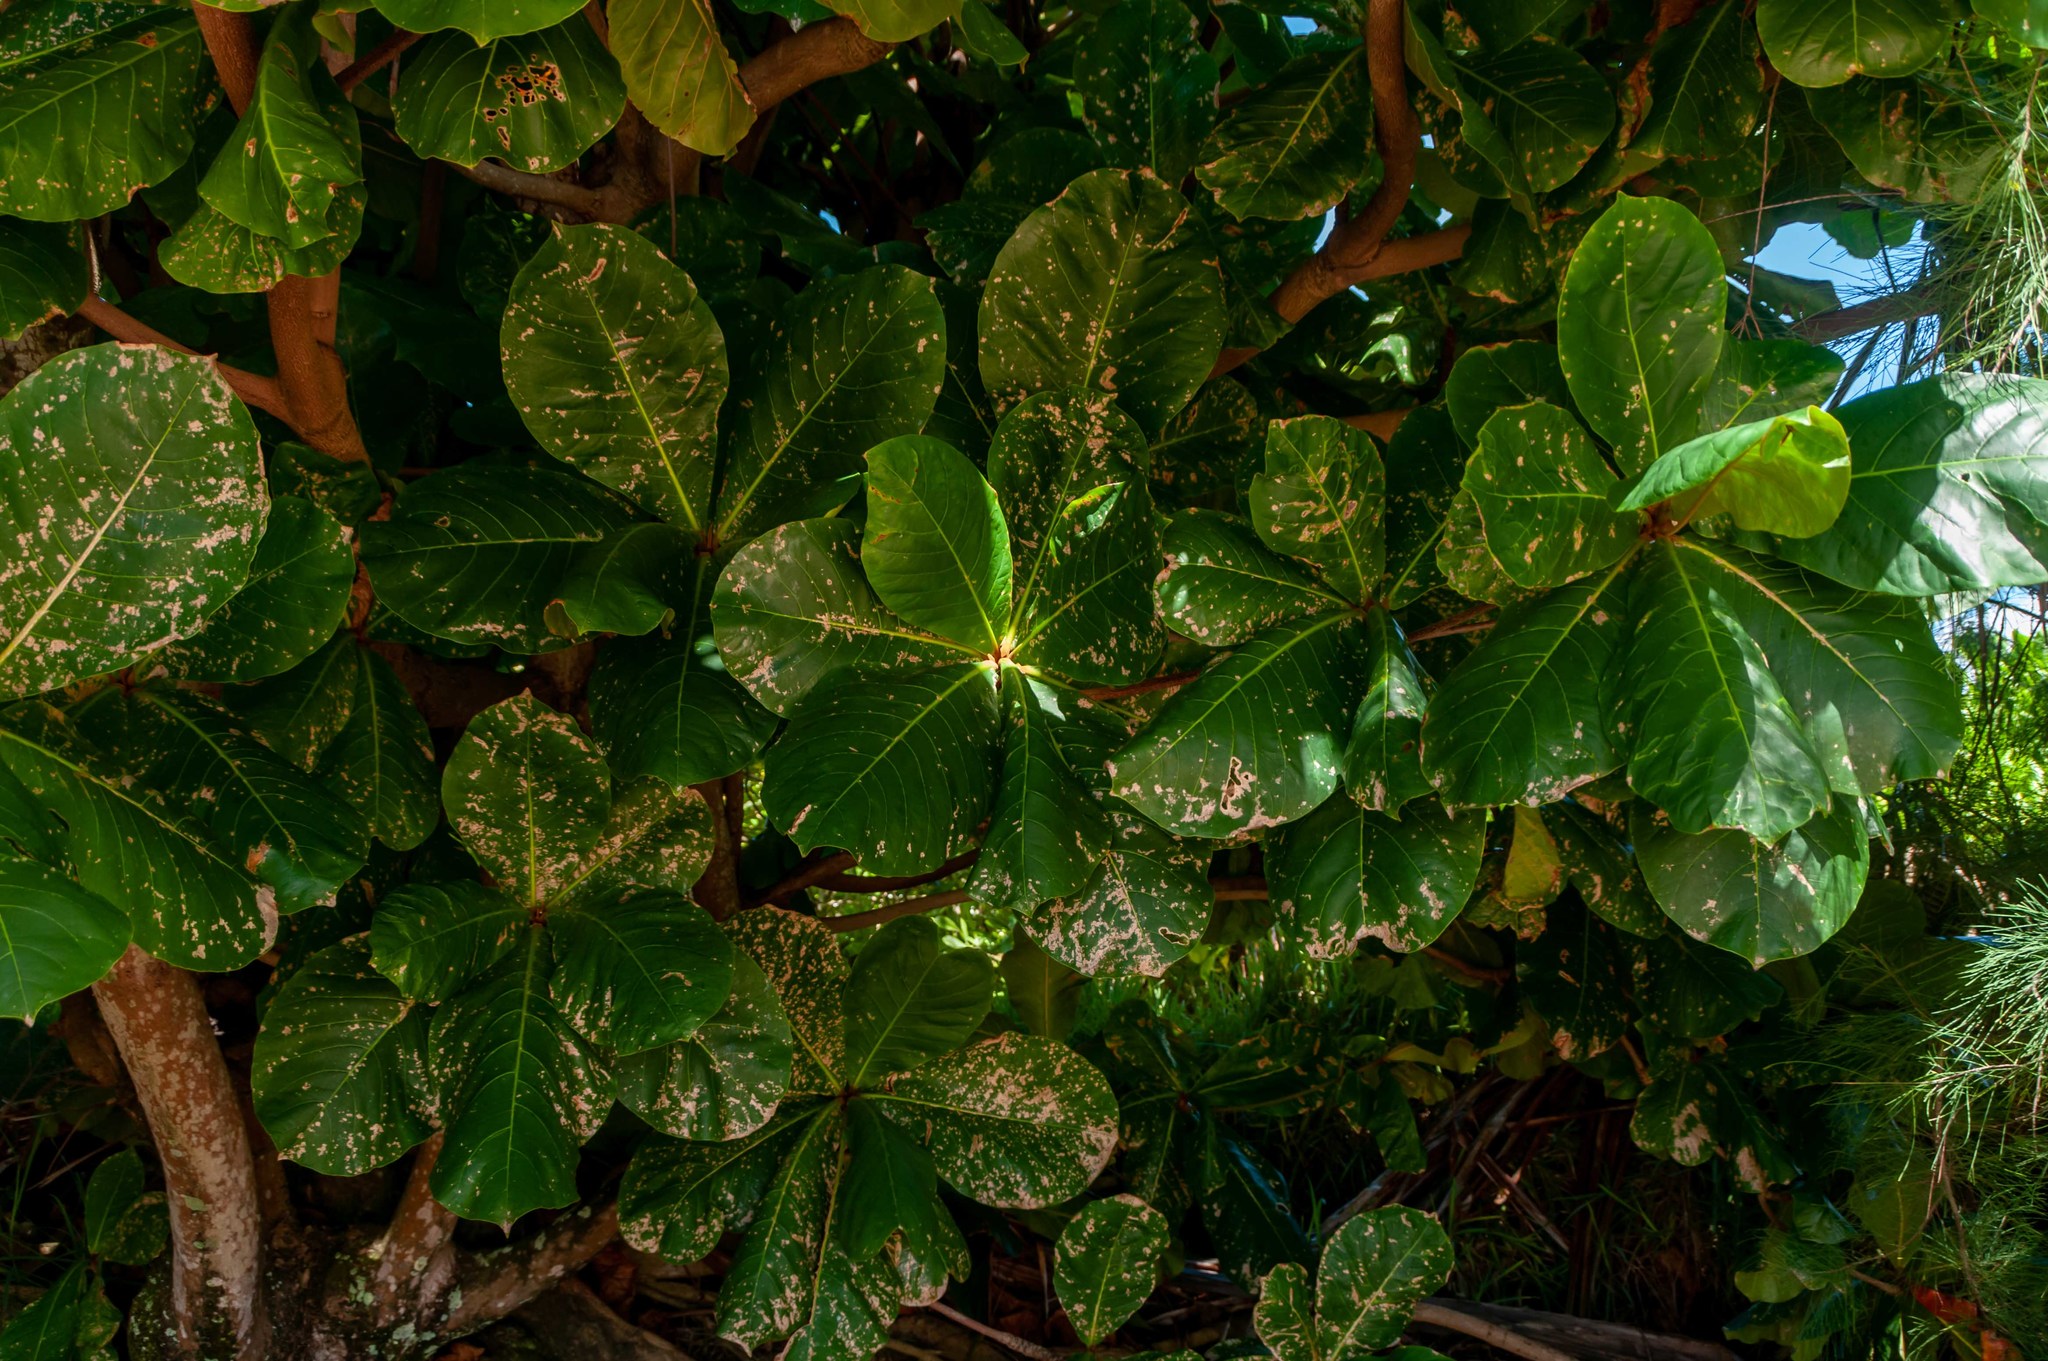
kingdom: Plantae
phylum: Tracheophyta
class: Magnoliopsida
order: Myrtales
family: Combretaceae
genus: Terminalia
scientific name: Terminalia catappa
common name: Tropical almond
